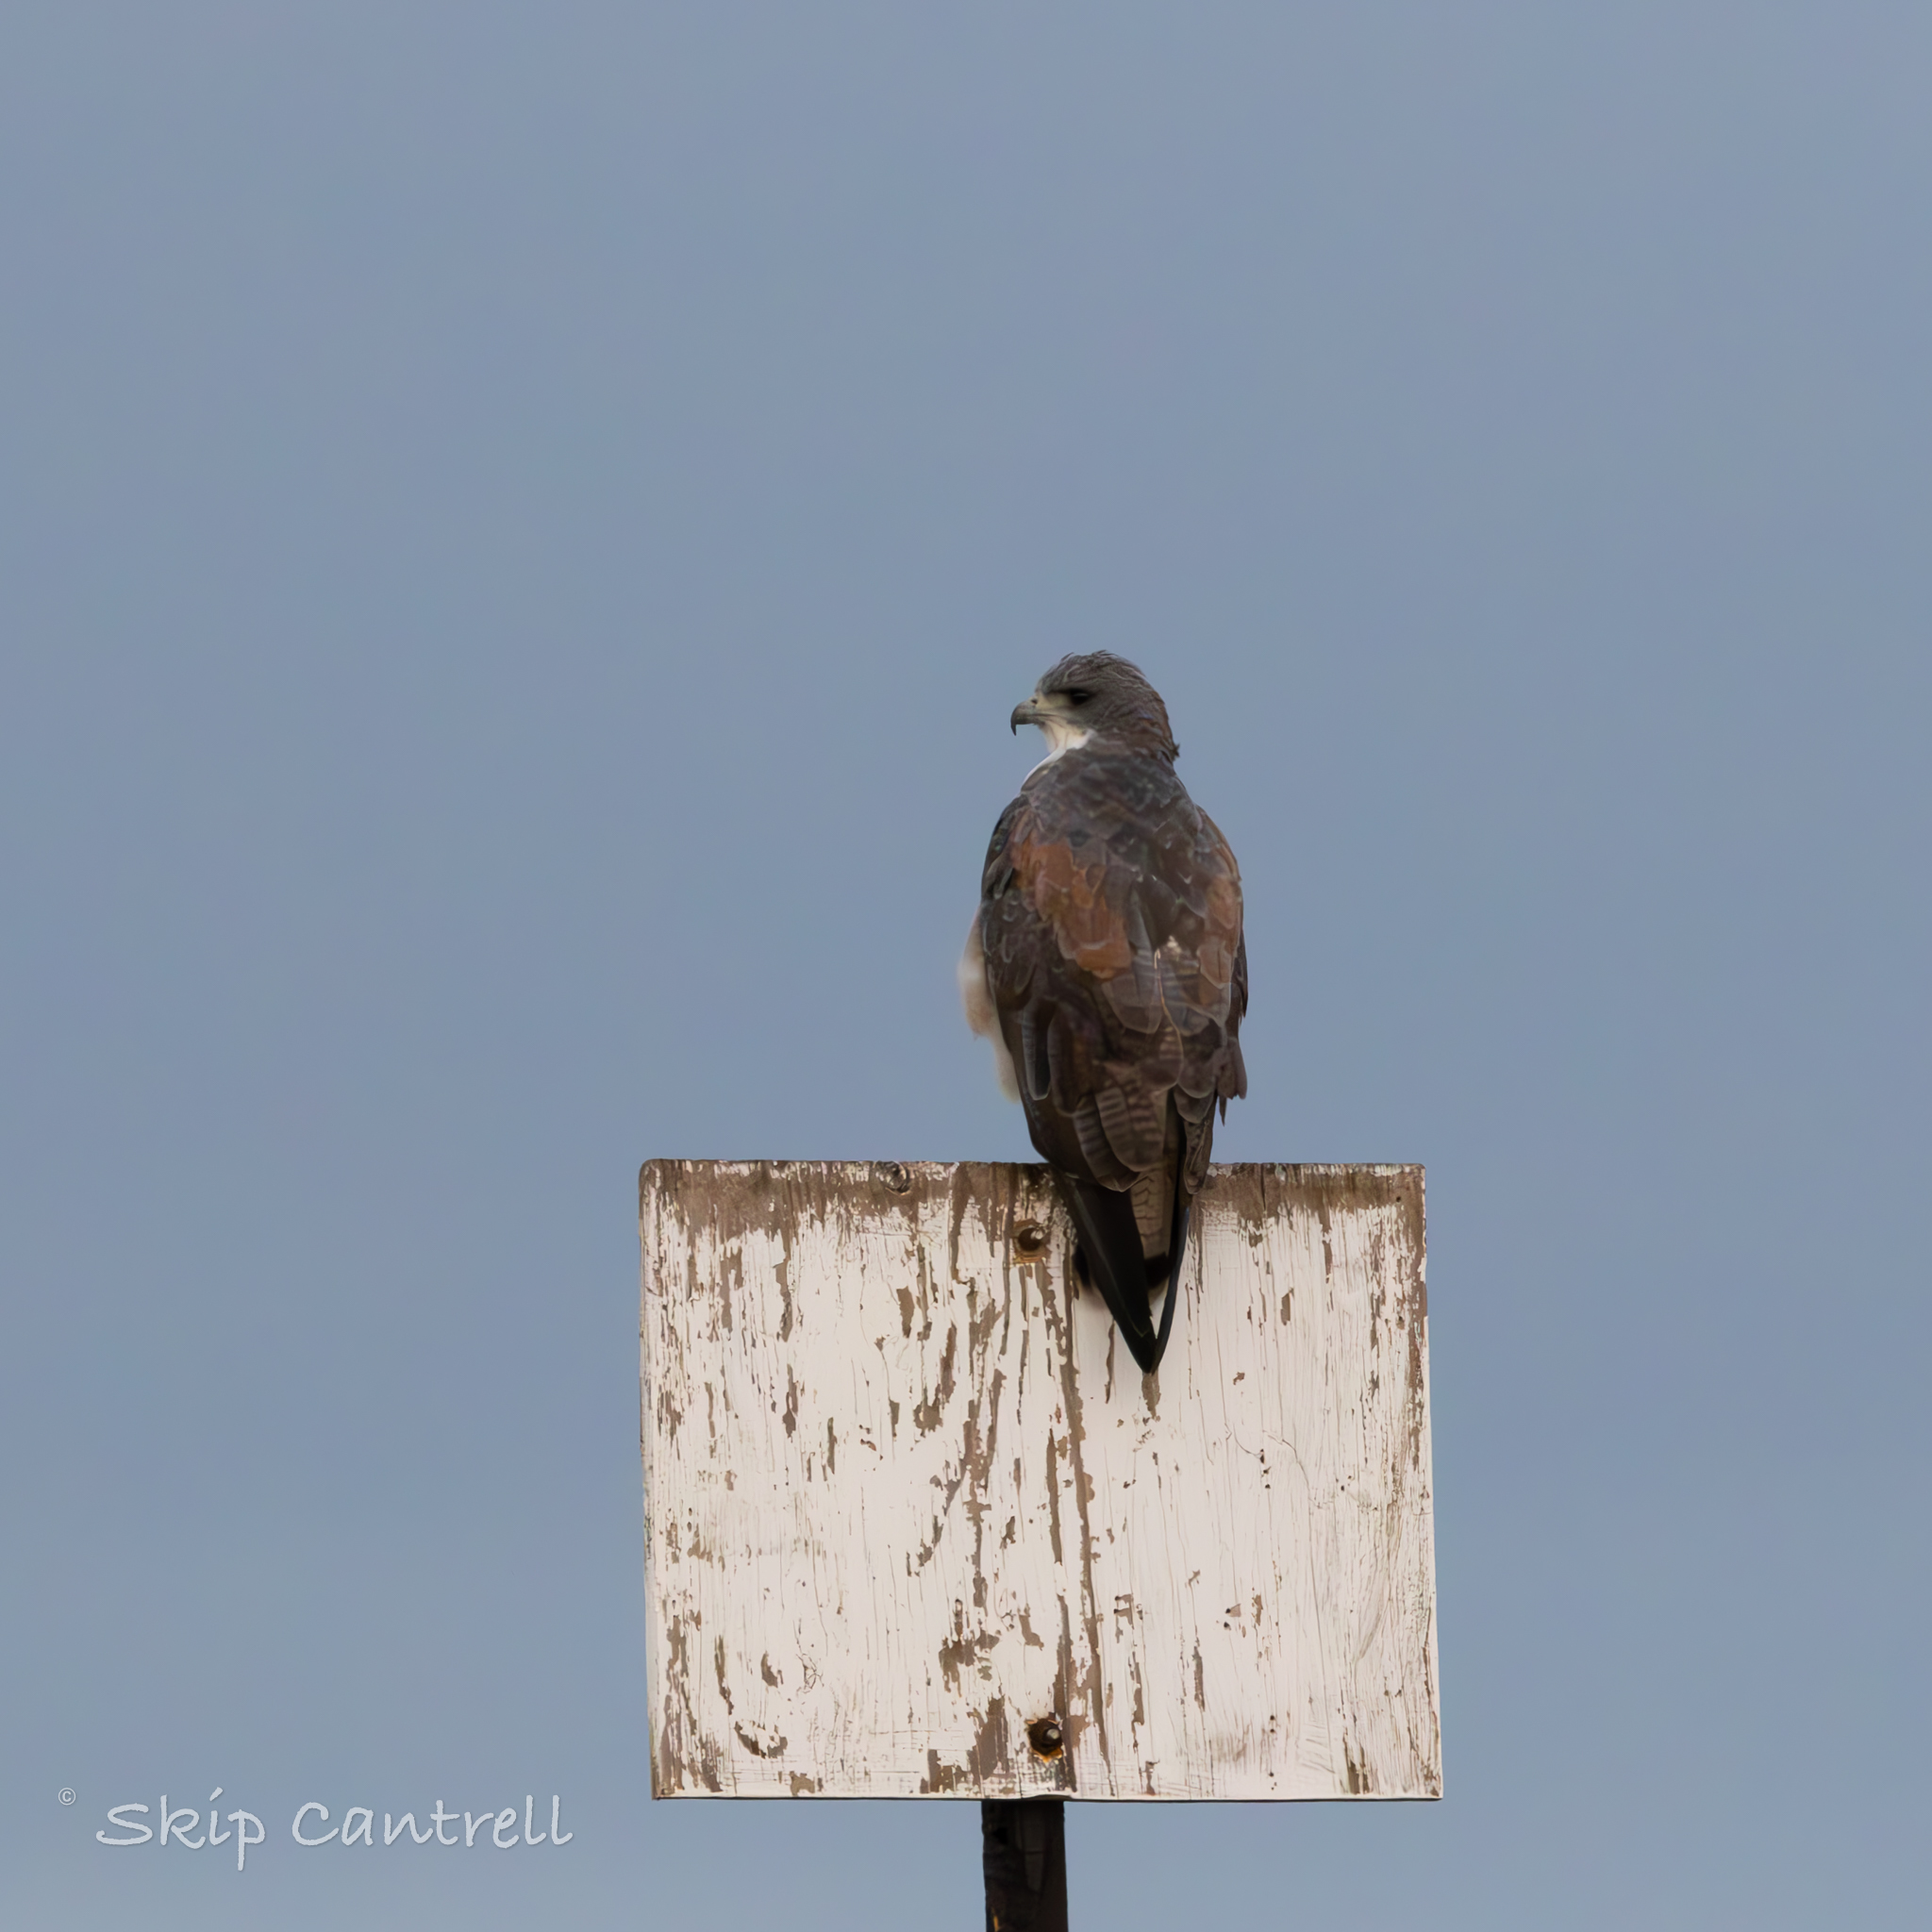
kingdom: Animalia
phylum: Chordata
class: Aves
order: Accipitriformes
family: Accipitridae
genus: Buteo
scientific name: Buteo albicaudatus
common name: White-tailed hawk
